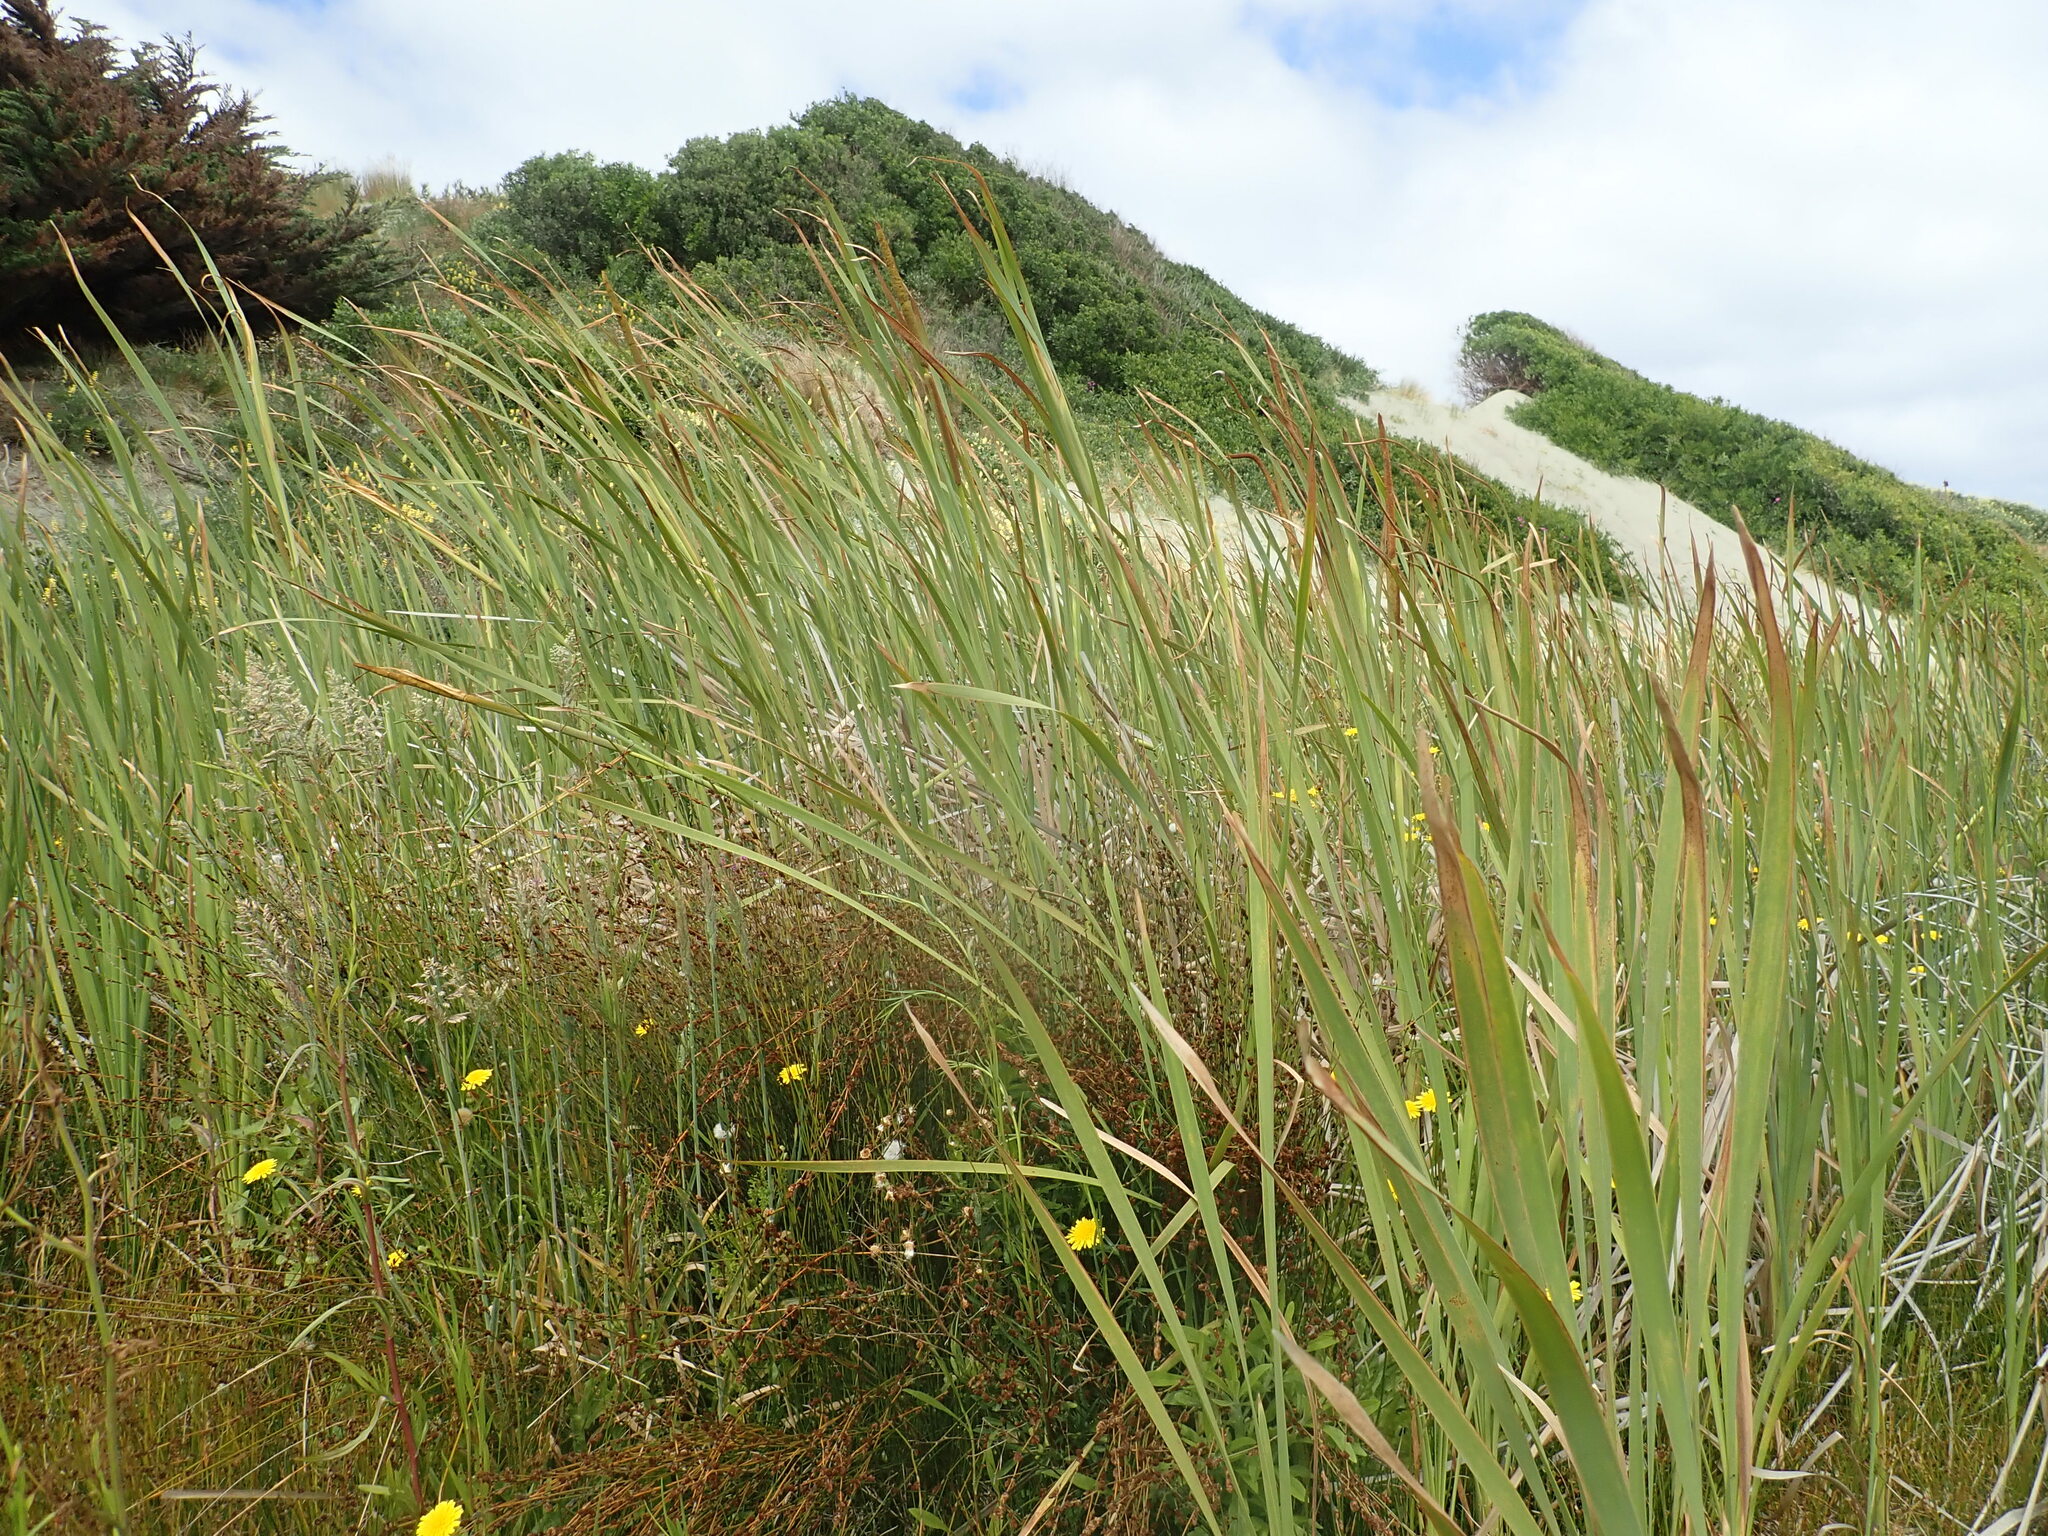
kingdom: Plantae
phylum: Tracheophyta
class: Liliopsida
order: Poales
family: Typhaceae
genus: Typha
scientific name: Typha orientalis
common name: Bullrush
